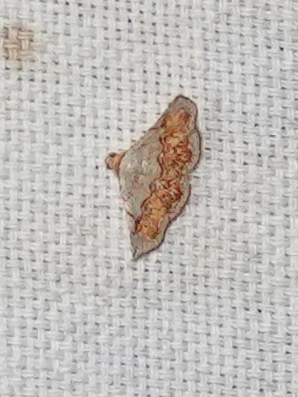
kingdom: Animalia
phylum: Arthropoda
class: Insecta
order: Lepidoptera
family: Noctuidae
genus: Eublemma
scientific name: Eublemma semirufa
